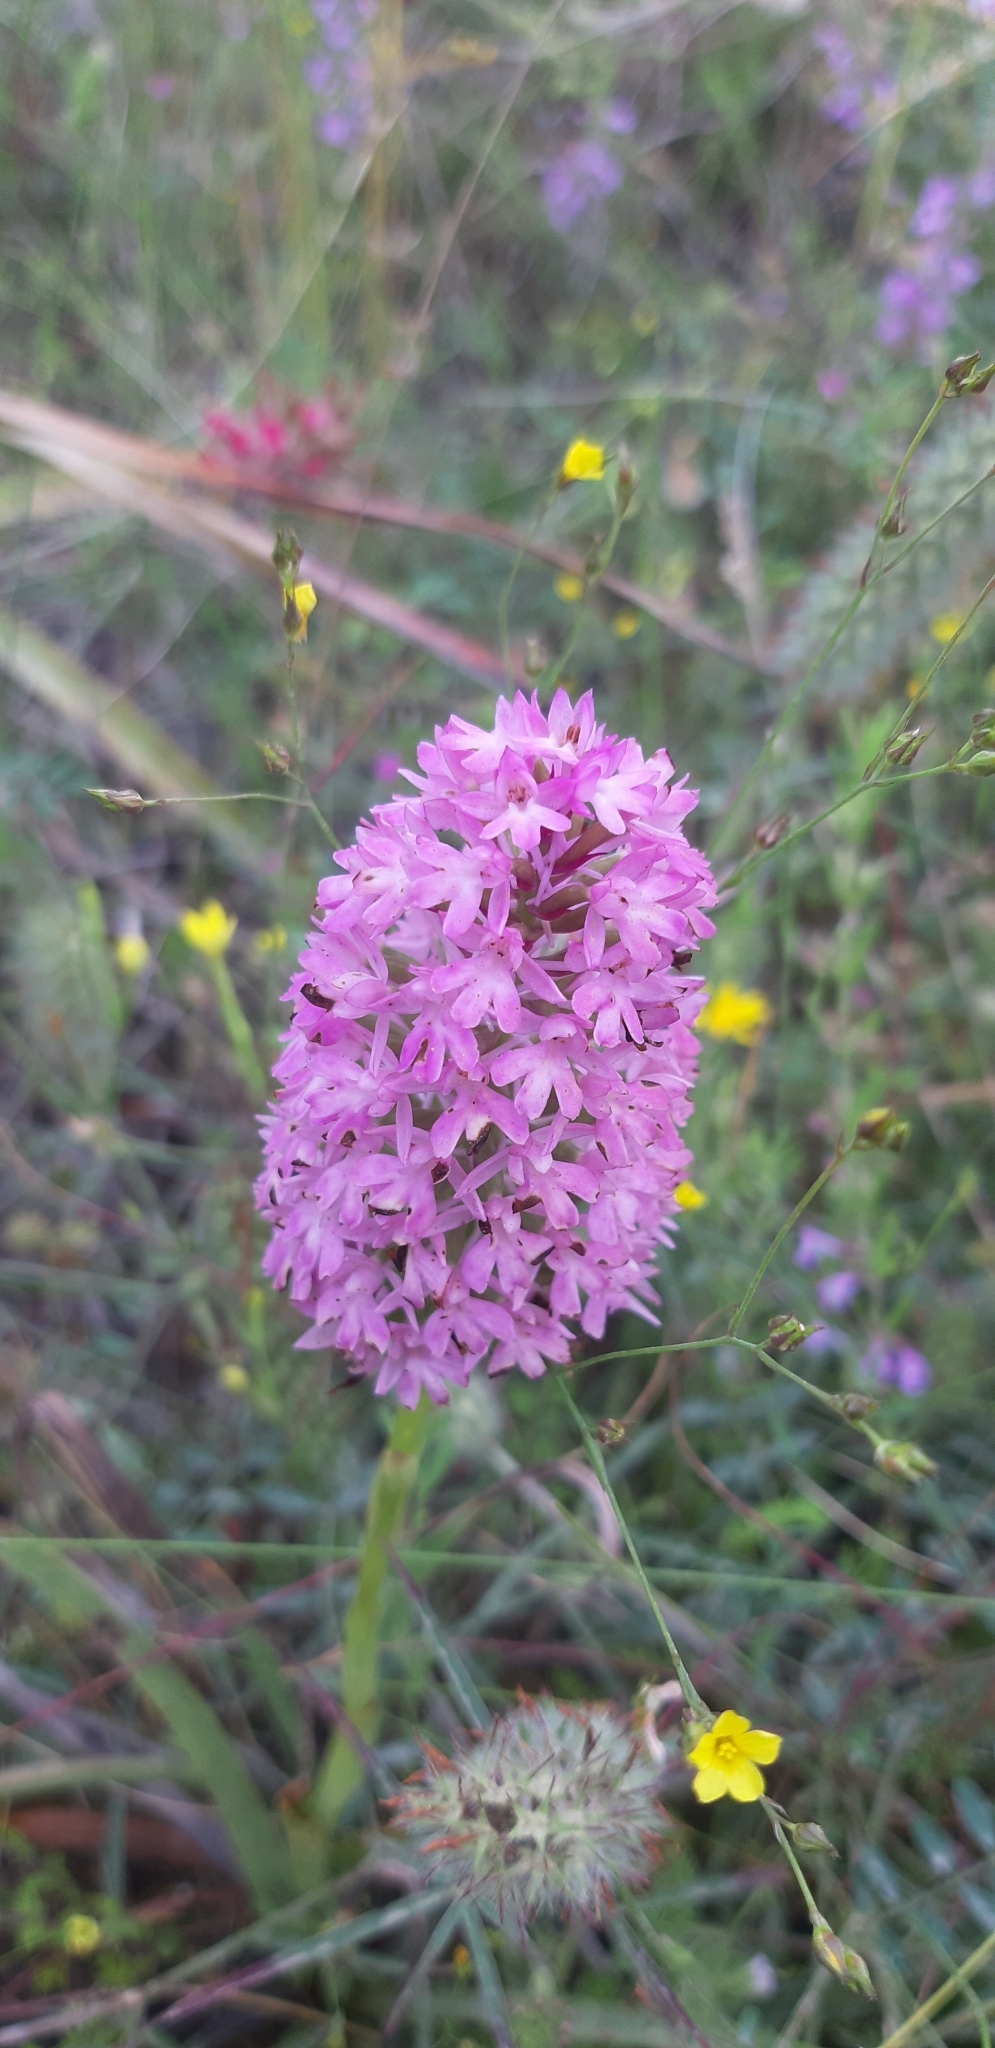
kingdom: Plantae
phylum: Tracheophyta
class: Liliopsida
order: Asparagales
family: Orchidaceae
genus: Anacamptis
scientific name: Anacamptis pyramidalis
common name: Pyramidal orchid
